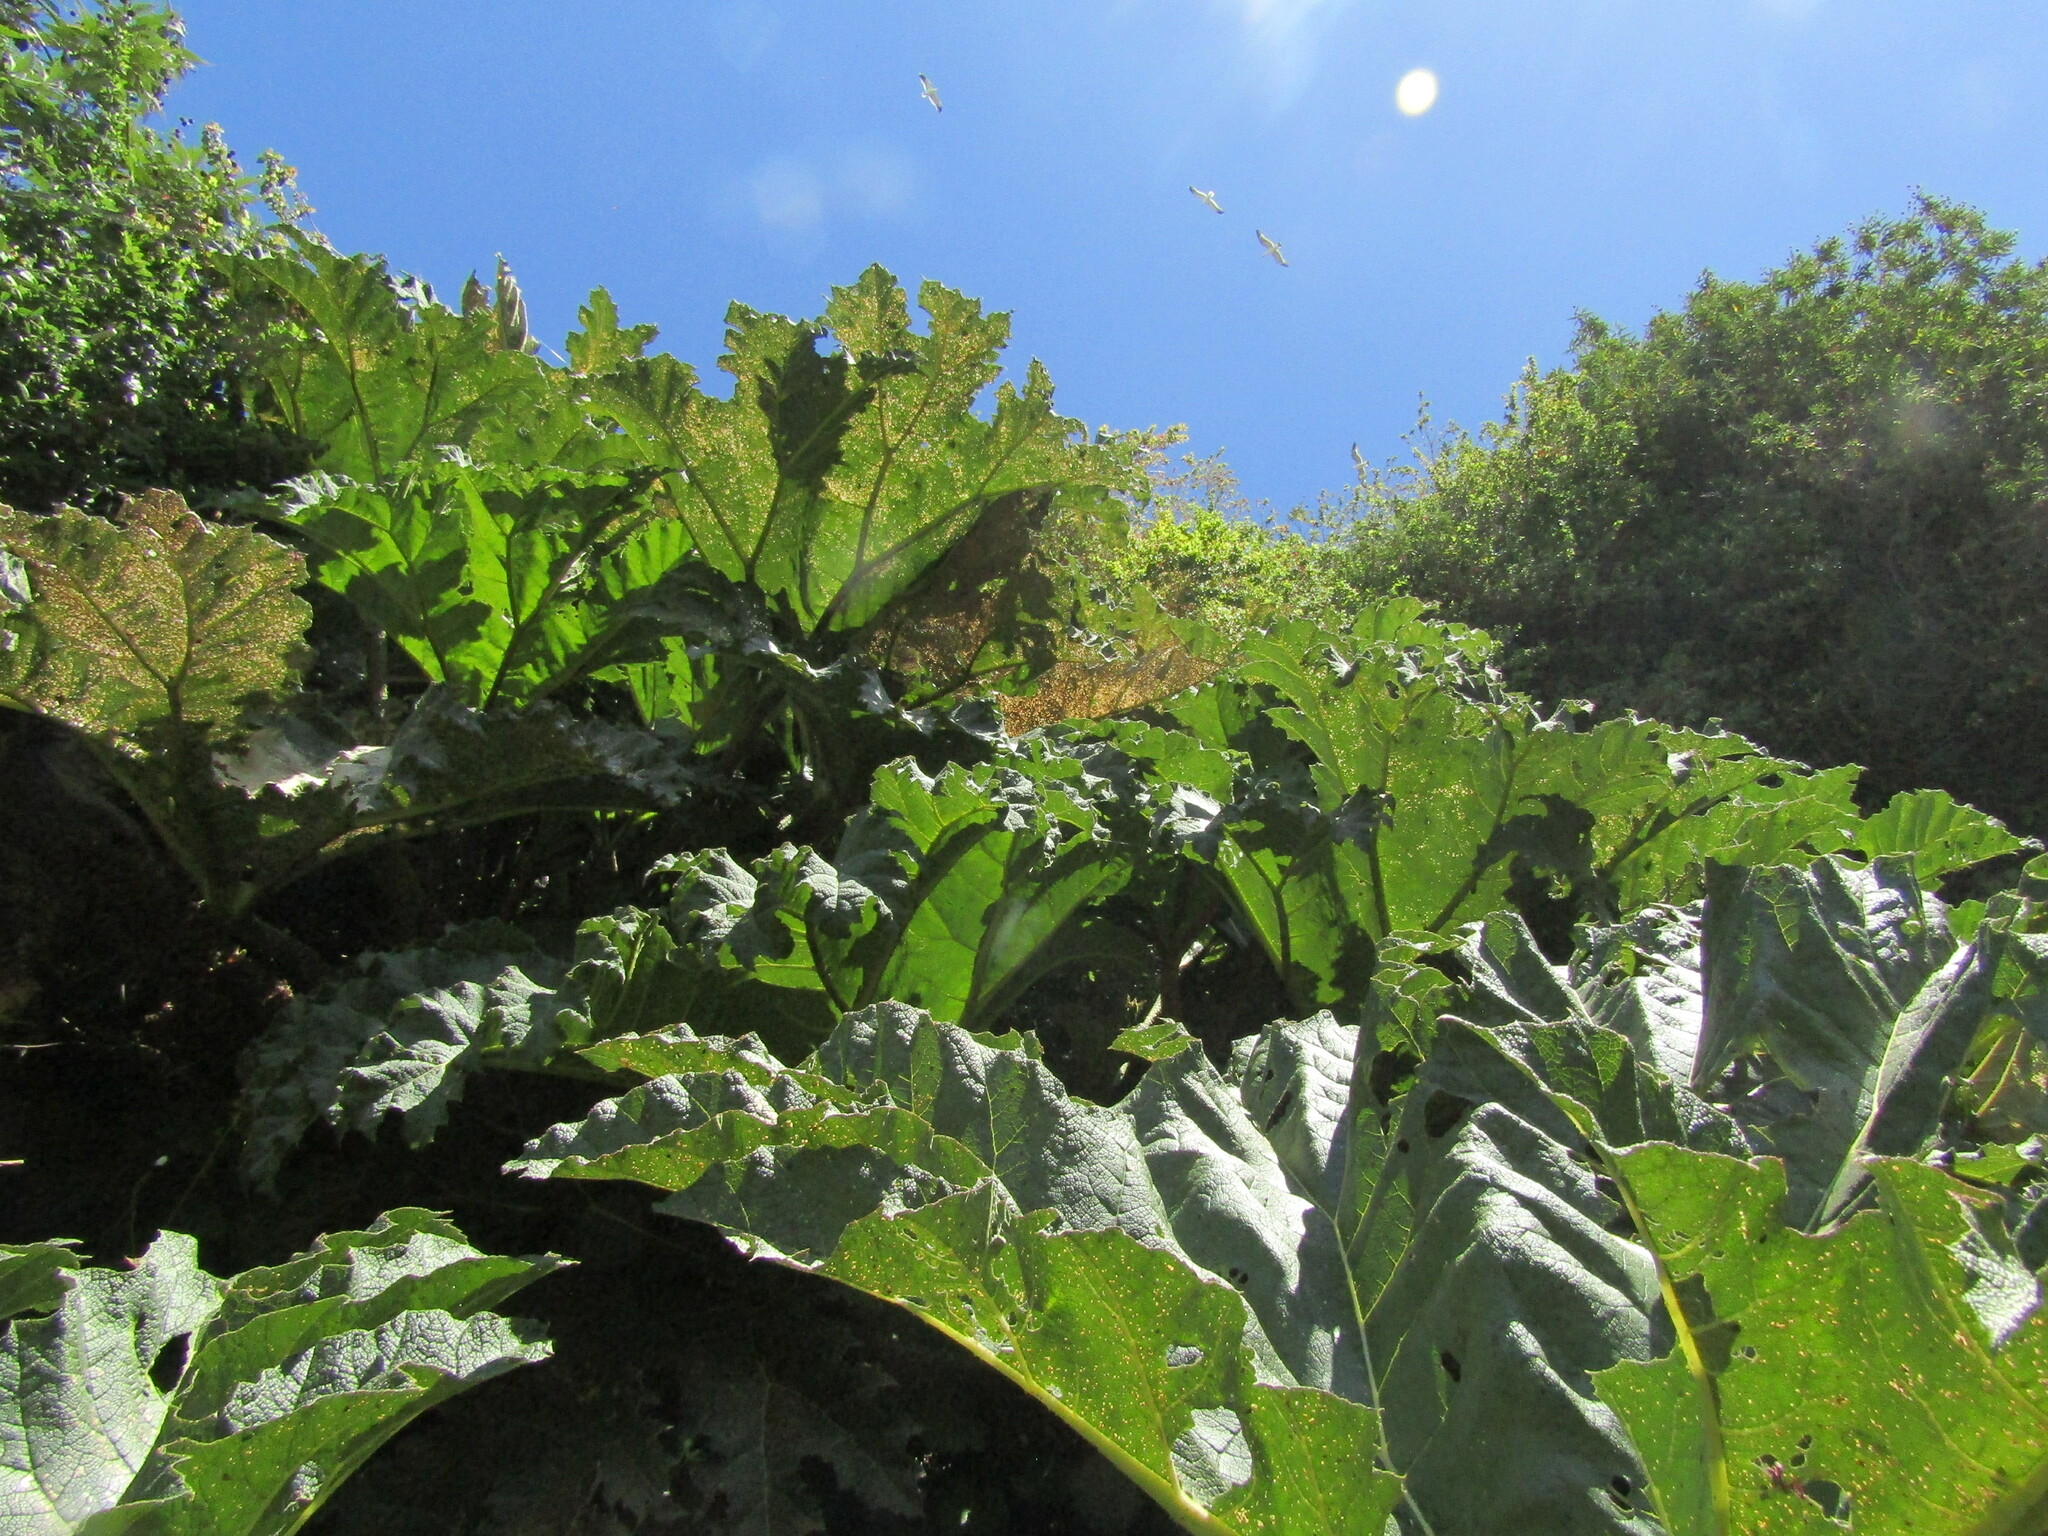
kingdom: Plantae
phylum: Tracheophyta
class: Magnoliopsida
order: Gunnerales
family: Gunneraceae
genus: Gunnera
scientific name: Gunnera tinctoria
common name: Giant-rhubarb
